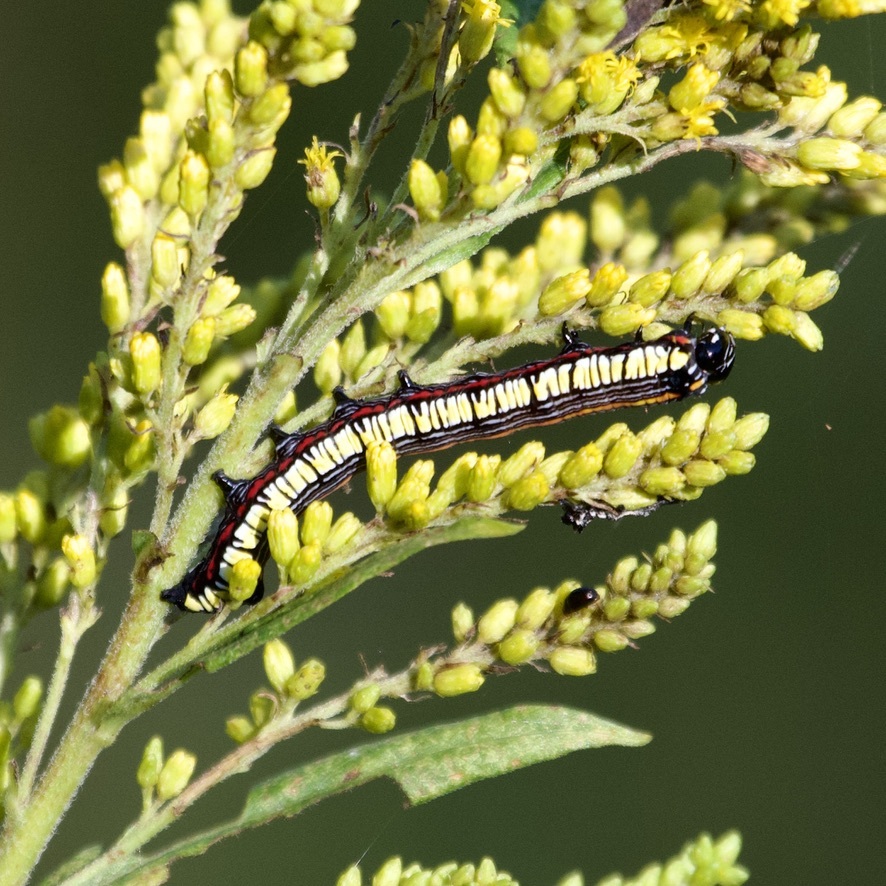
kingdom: Animalia
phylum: Arthropoda
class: Insecta
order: Lepidoptera
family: Noctuidae
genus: Cucullia
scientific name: Cucullia convexipennis
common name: Brown-hooded owlet
